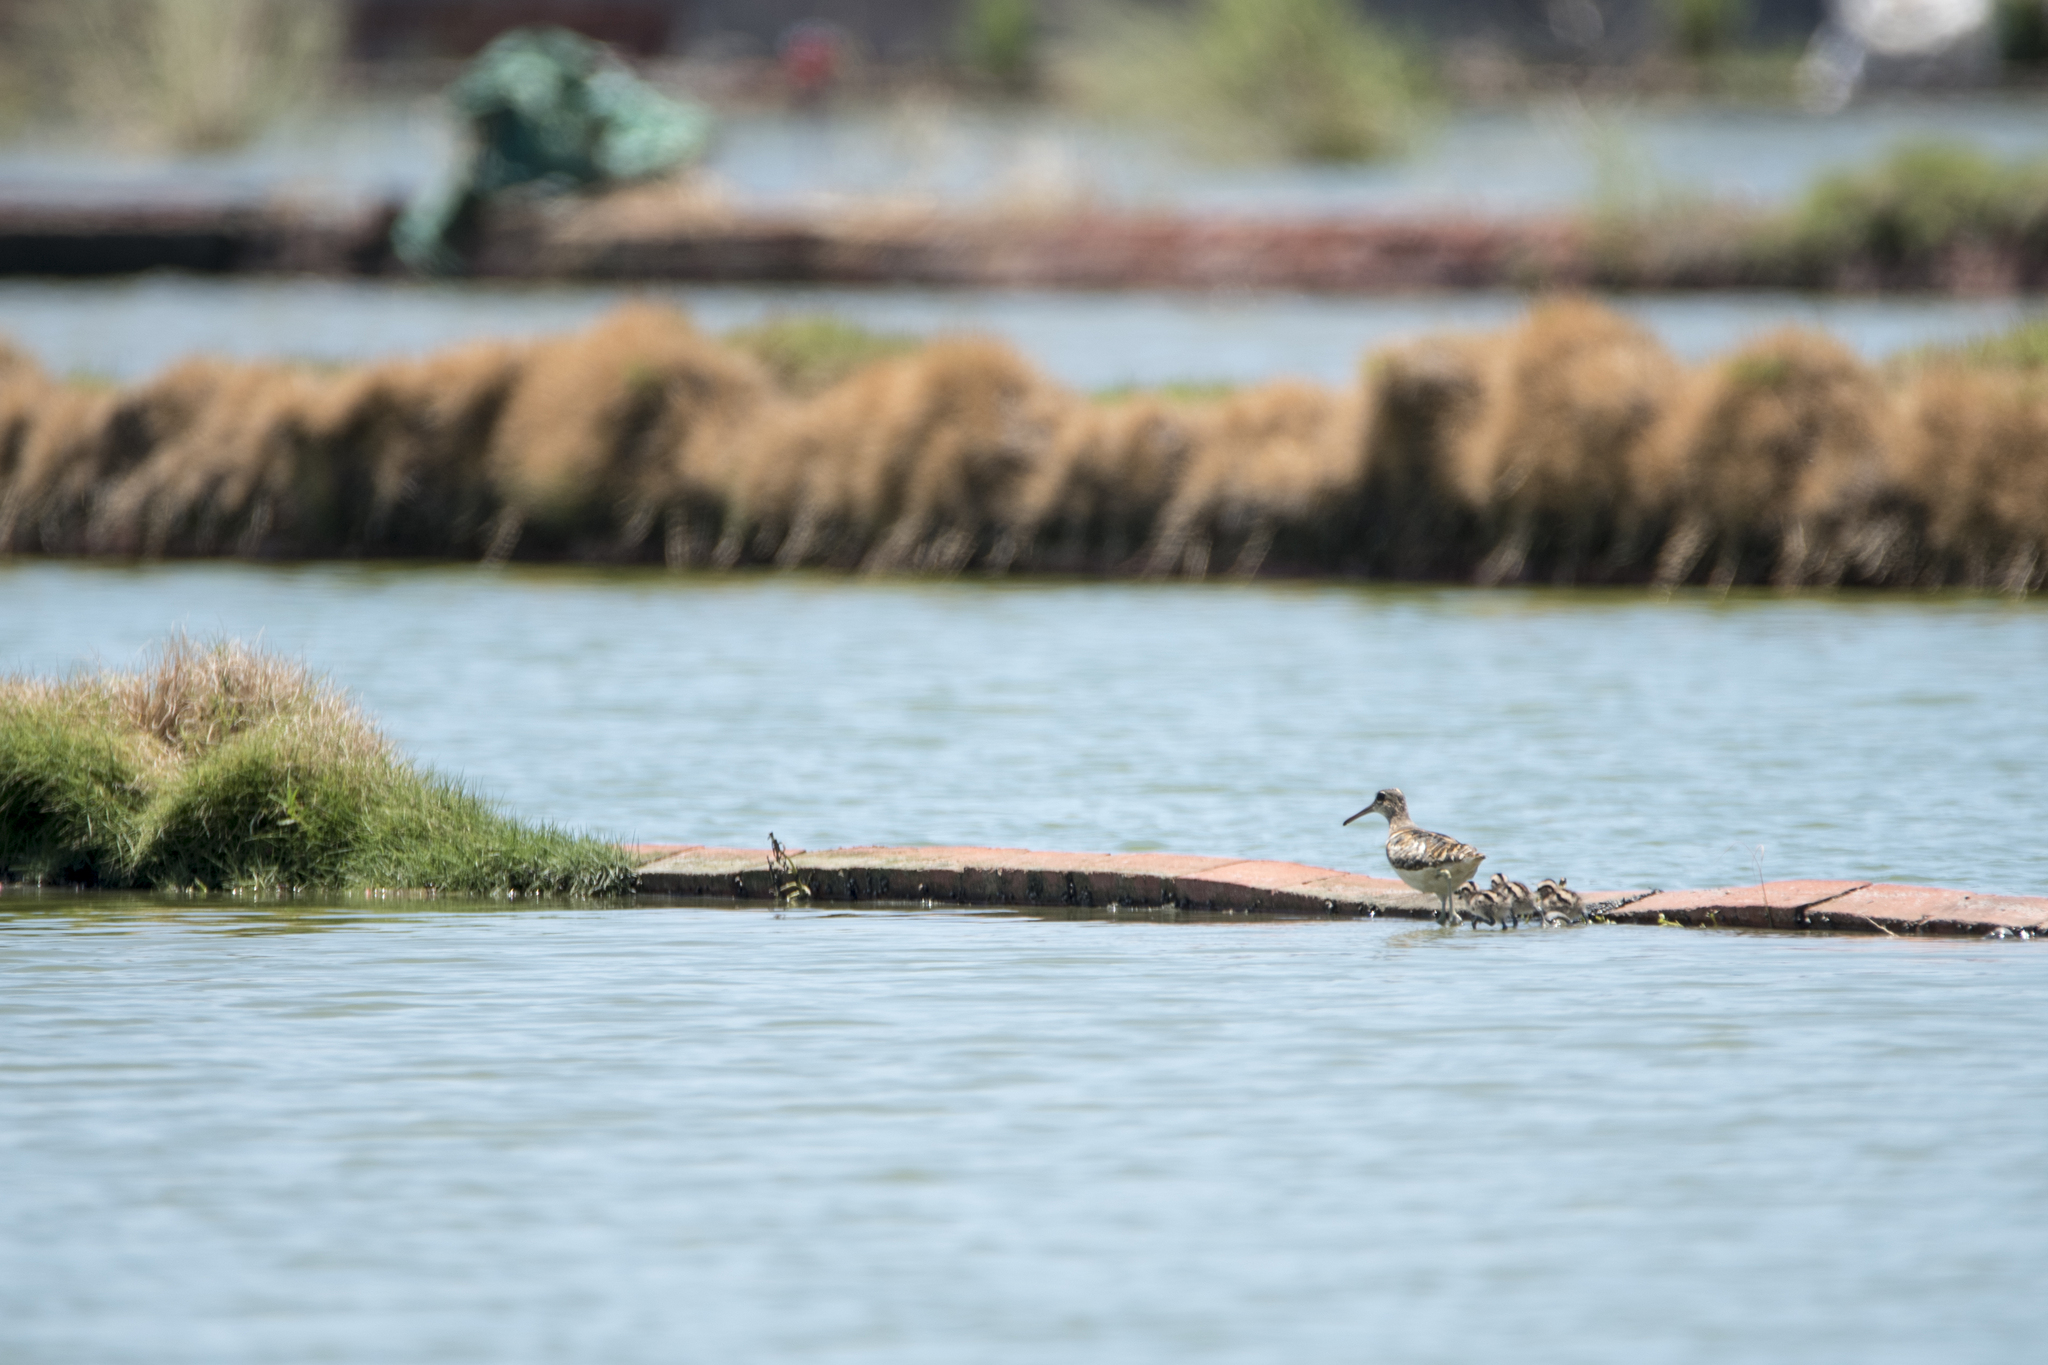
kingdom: Animalia
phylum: Chordata
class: Aves
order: Charadriiformes
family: Rostratulidae
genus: Rostratula
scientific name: Rostratula benghalensis
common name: Greater painted-snipe
